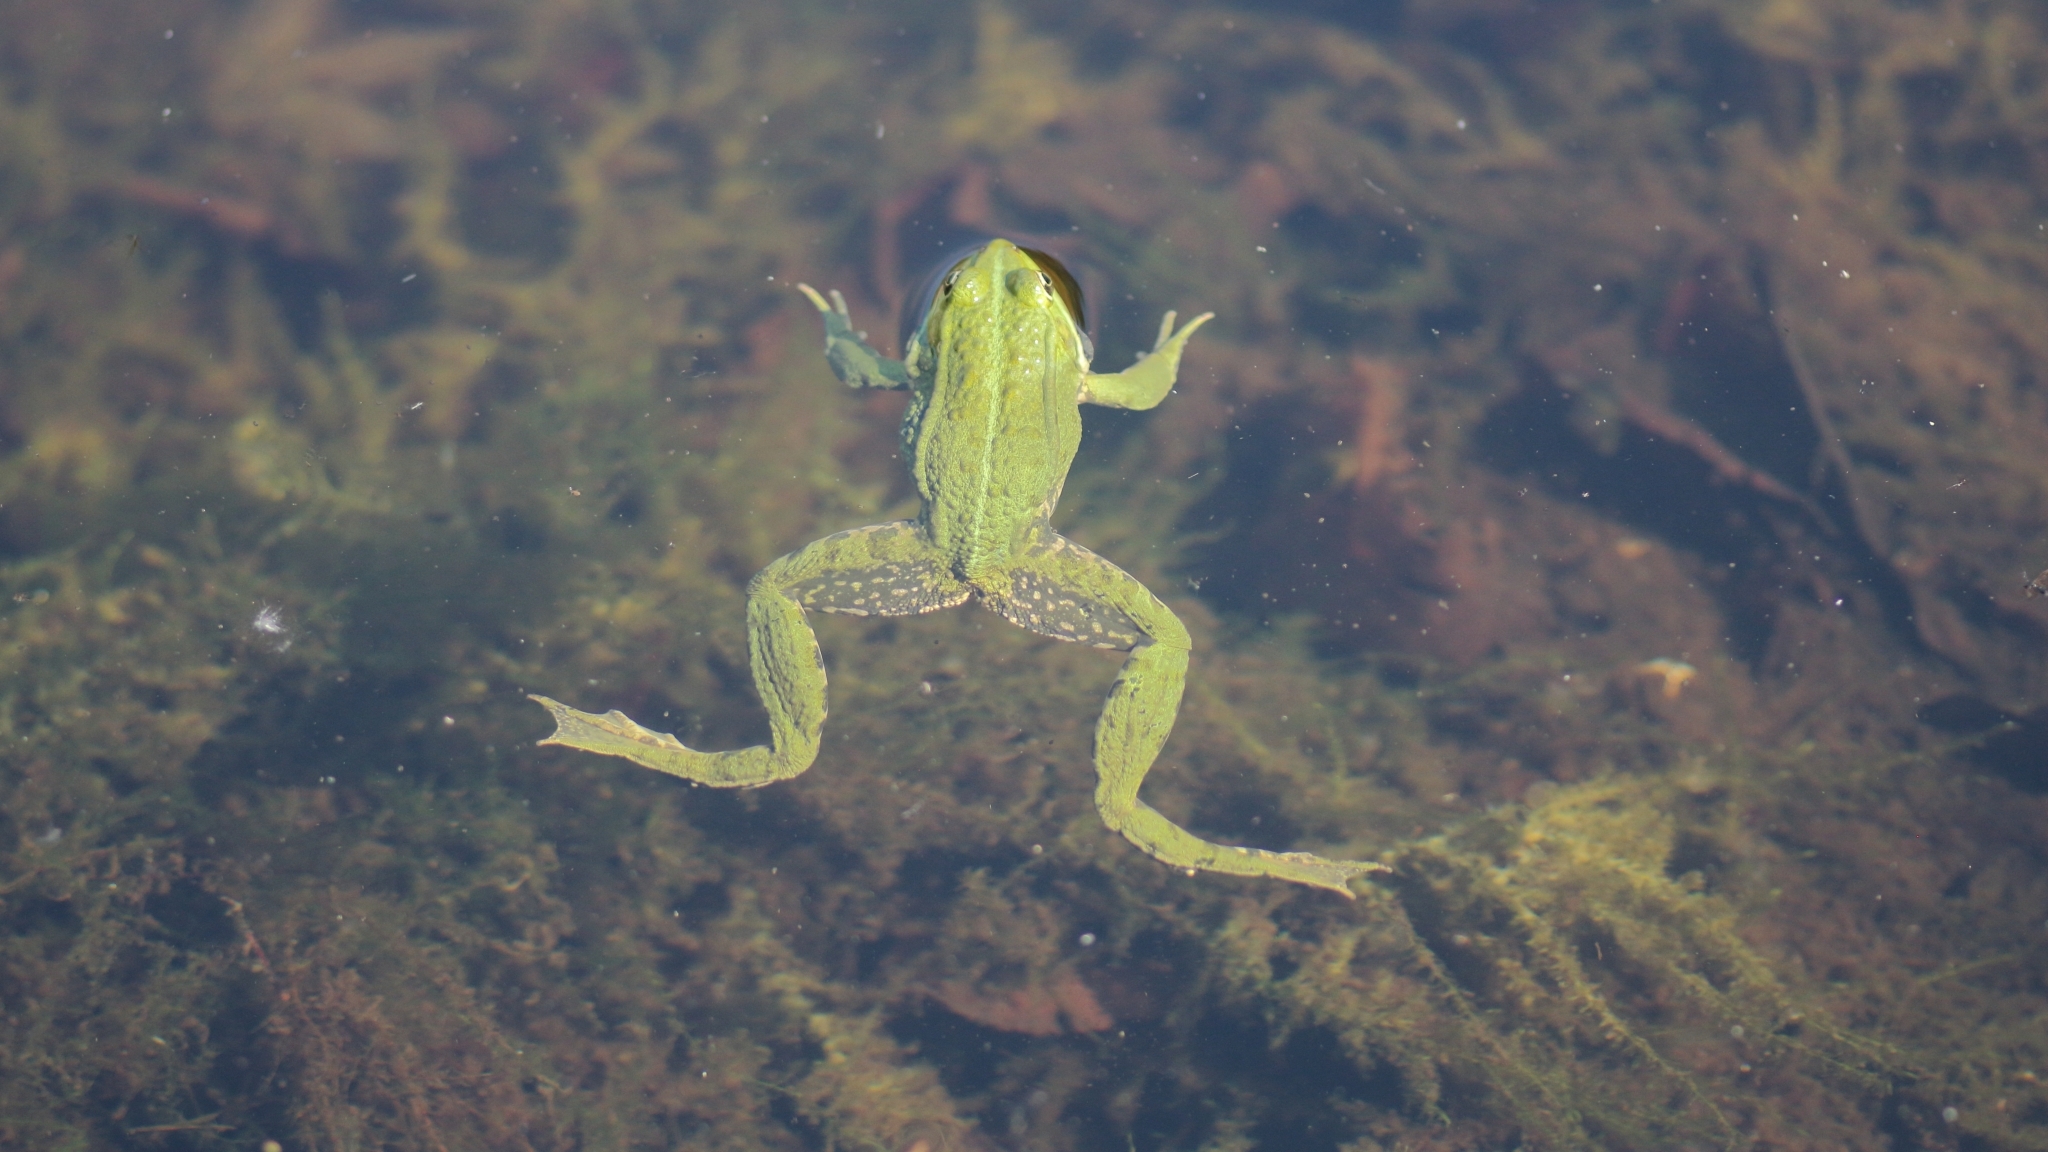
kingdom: Animalia
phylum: Chordata
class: Amphibia
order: Anura
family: Ranidae
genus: Pelophylax
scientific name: Pelophylax
